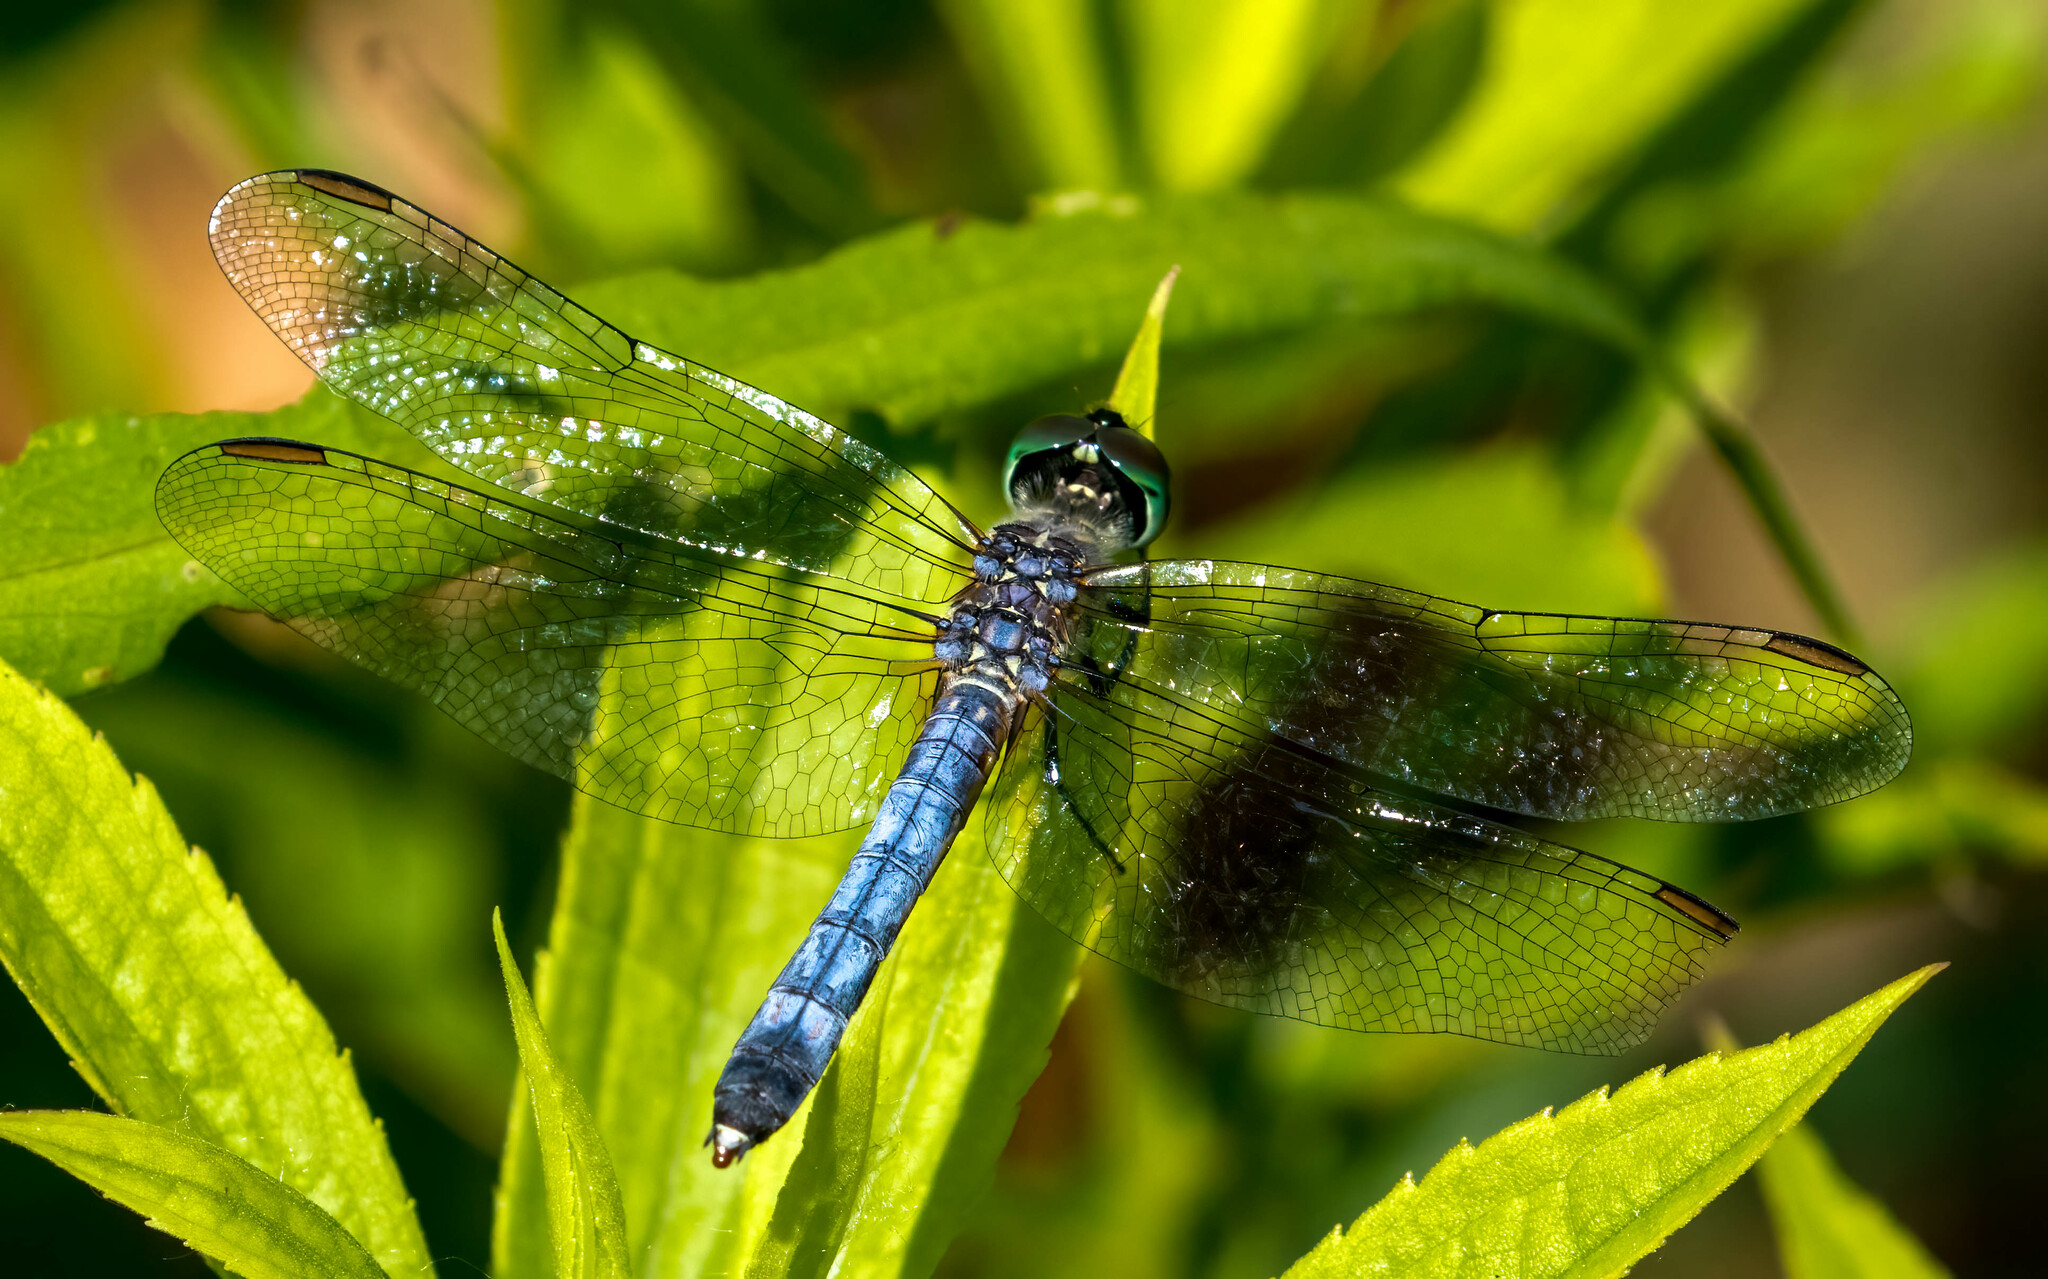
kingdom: Animalia
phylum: Arthropoda
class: Insecta
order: Odonata
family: Libellulidae
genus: Pachydiplax
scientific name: Pachydiplax longipennis
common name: Blue dasher
